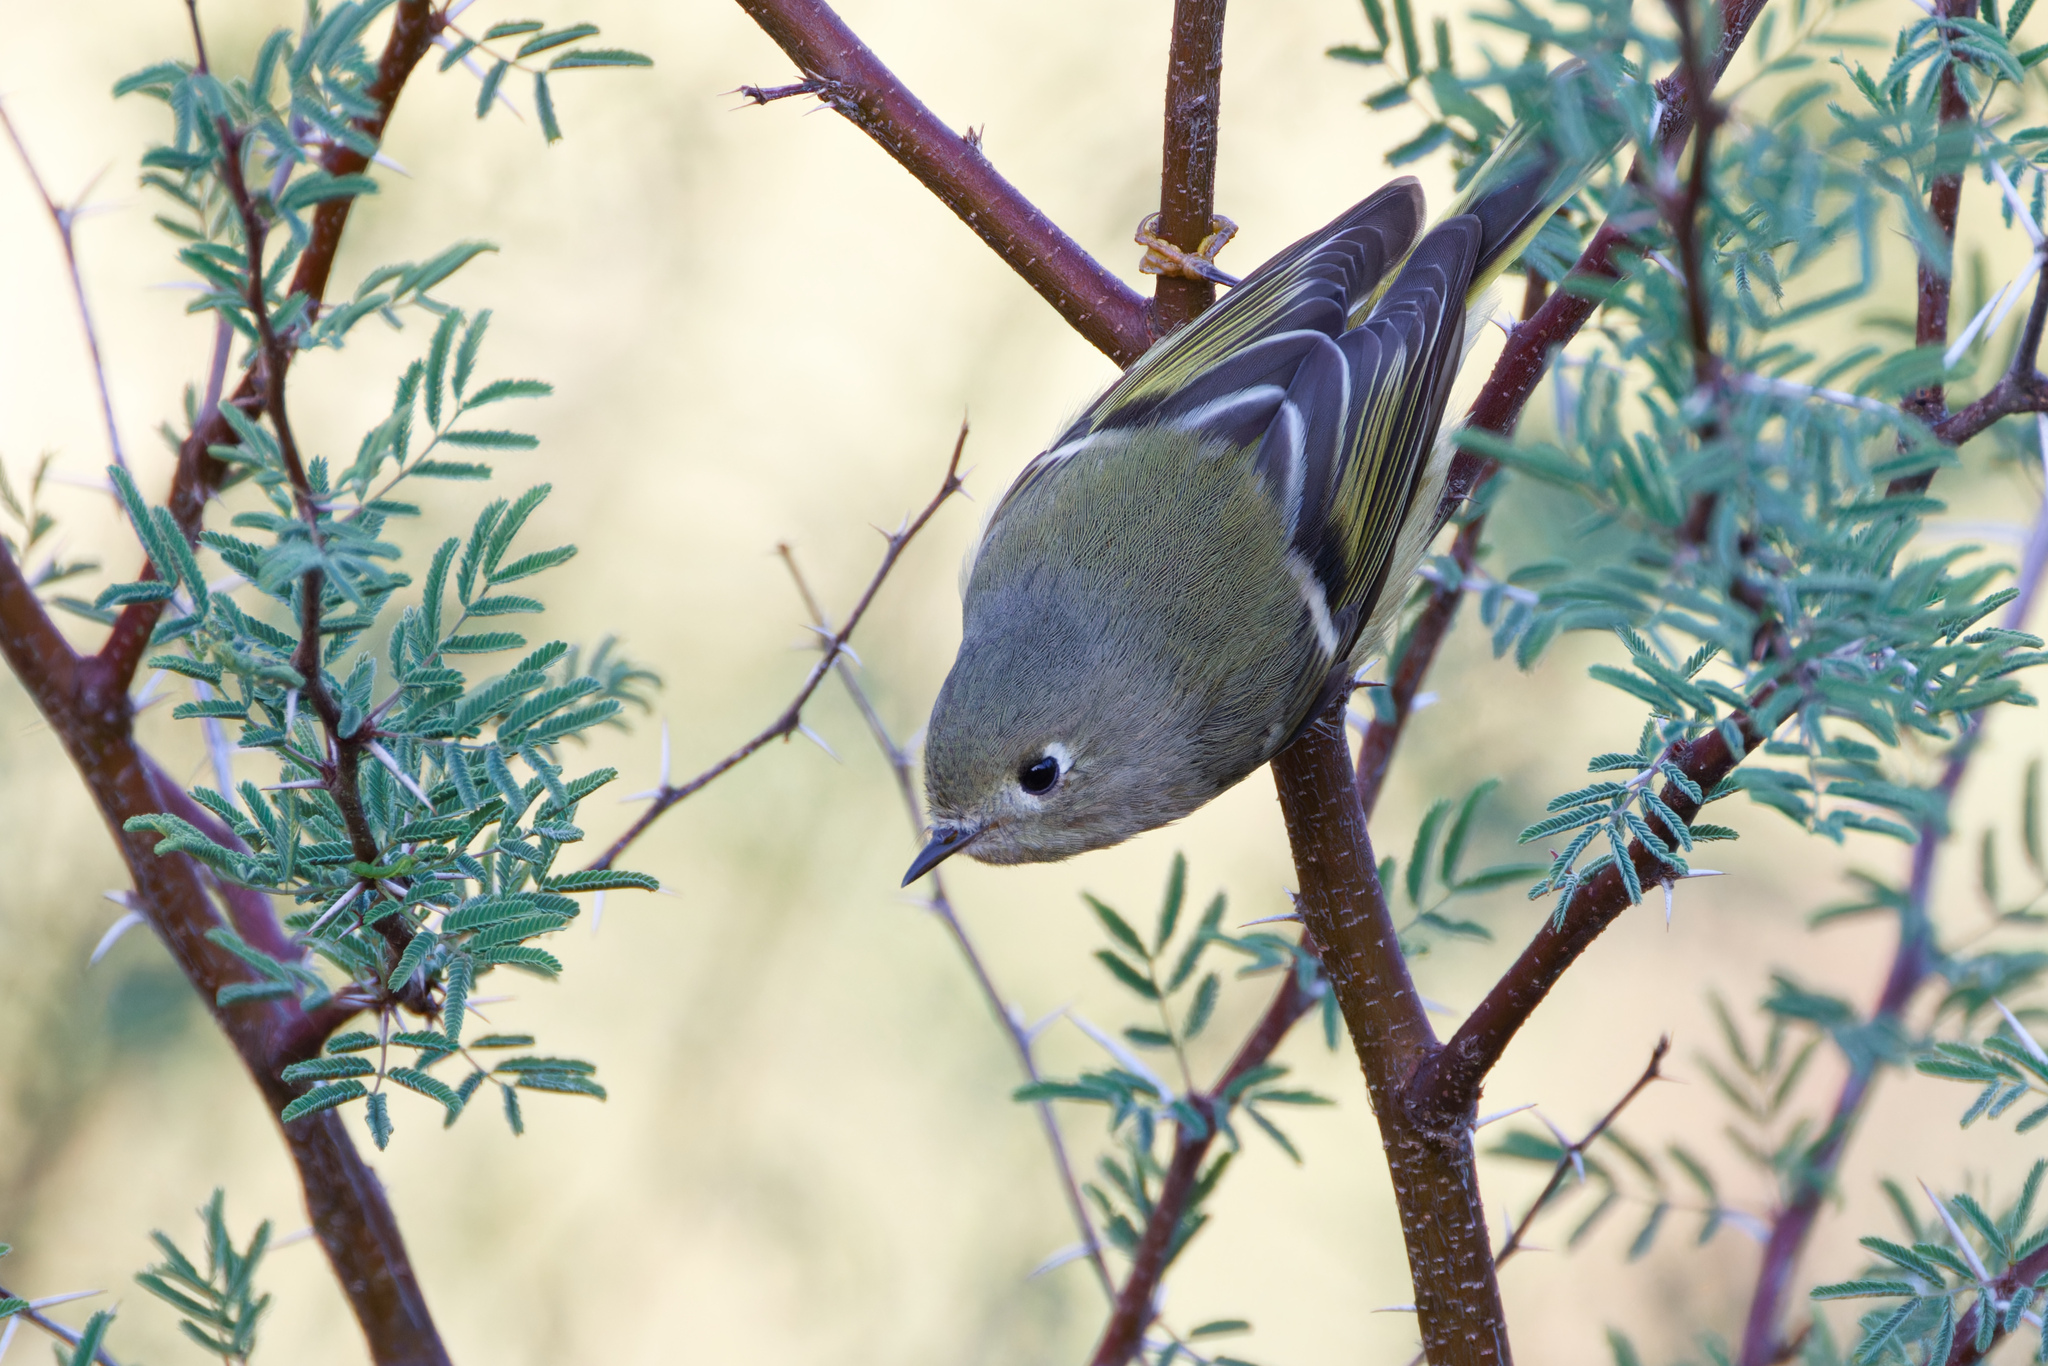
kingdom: Animalia
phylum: Chordata
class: Aves
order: Passeriformes
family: Regulidae
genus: Regulus
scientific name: Regulus calendula
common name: Ruby-crowned kinglet
